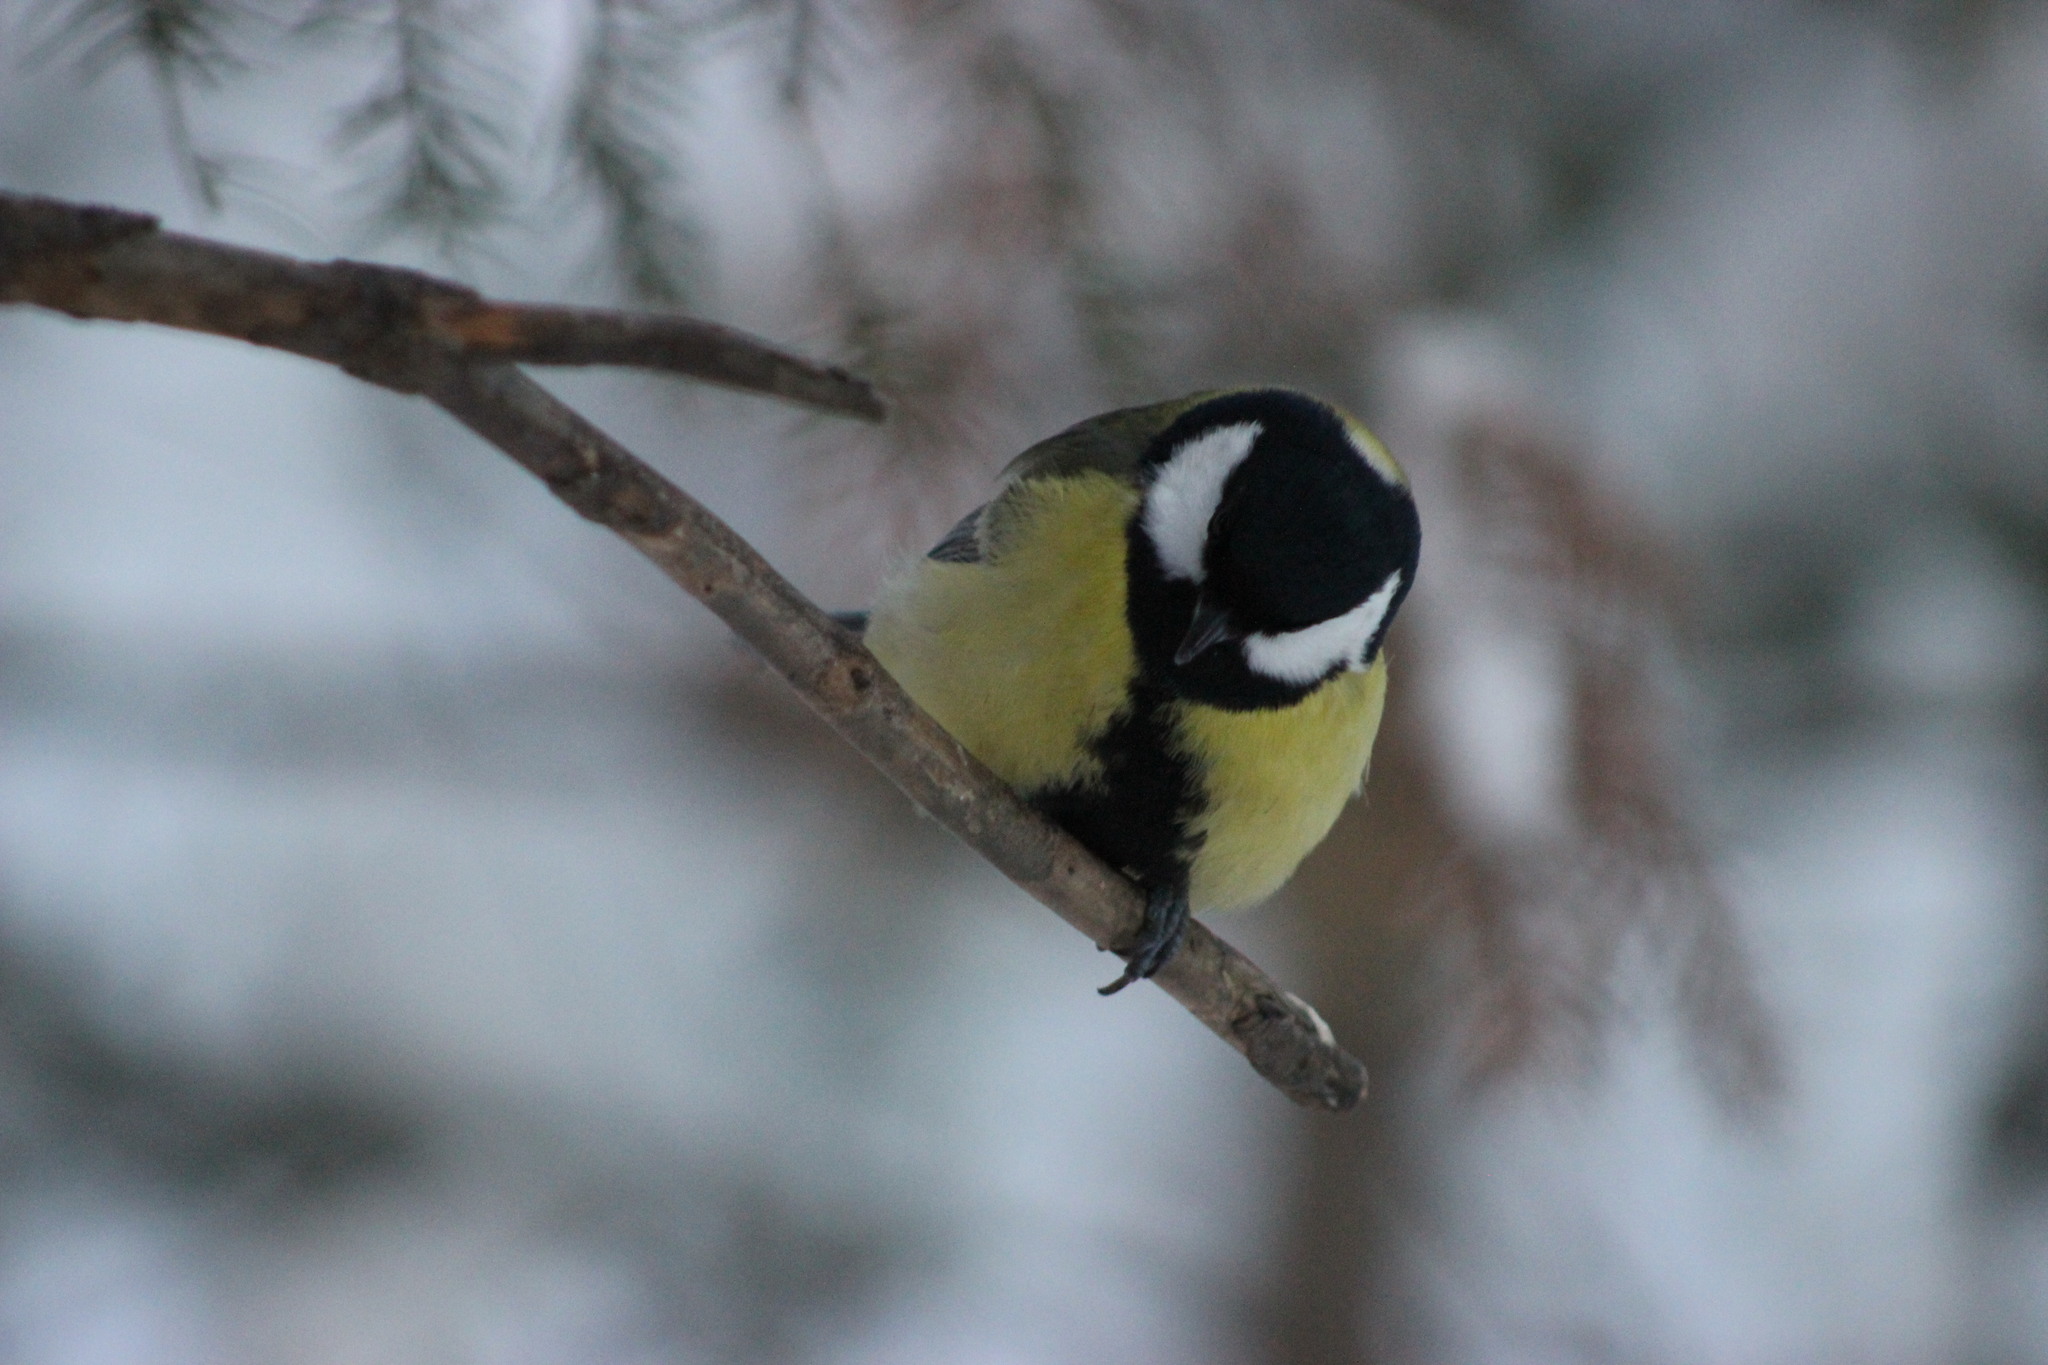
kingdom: Animalia
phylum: Chordata
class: Aves
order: Passeriformes
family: Paridae
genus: Parus
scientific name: Parus major
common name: Great tit
